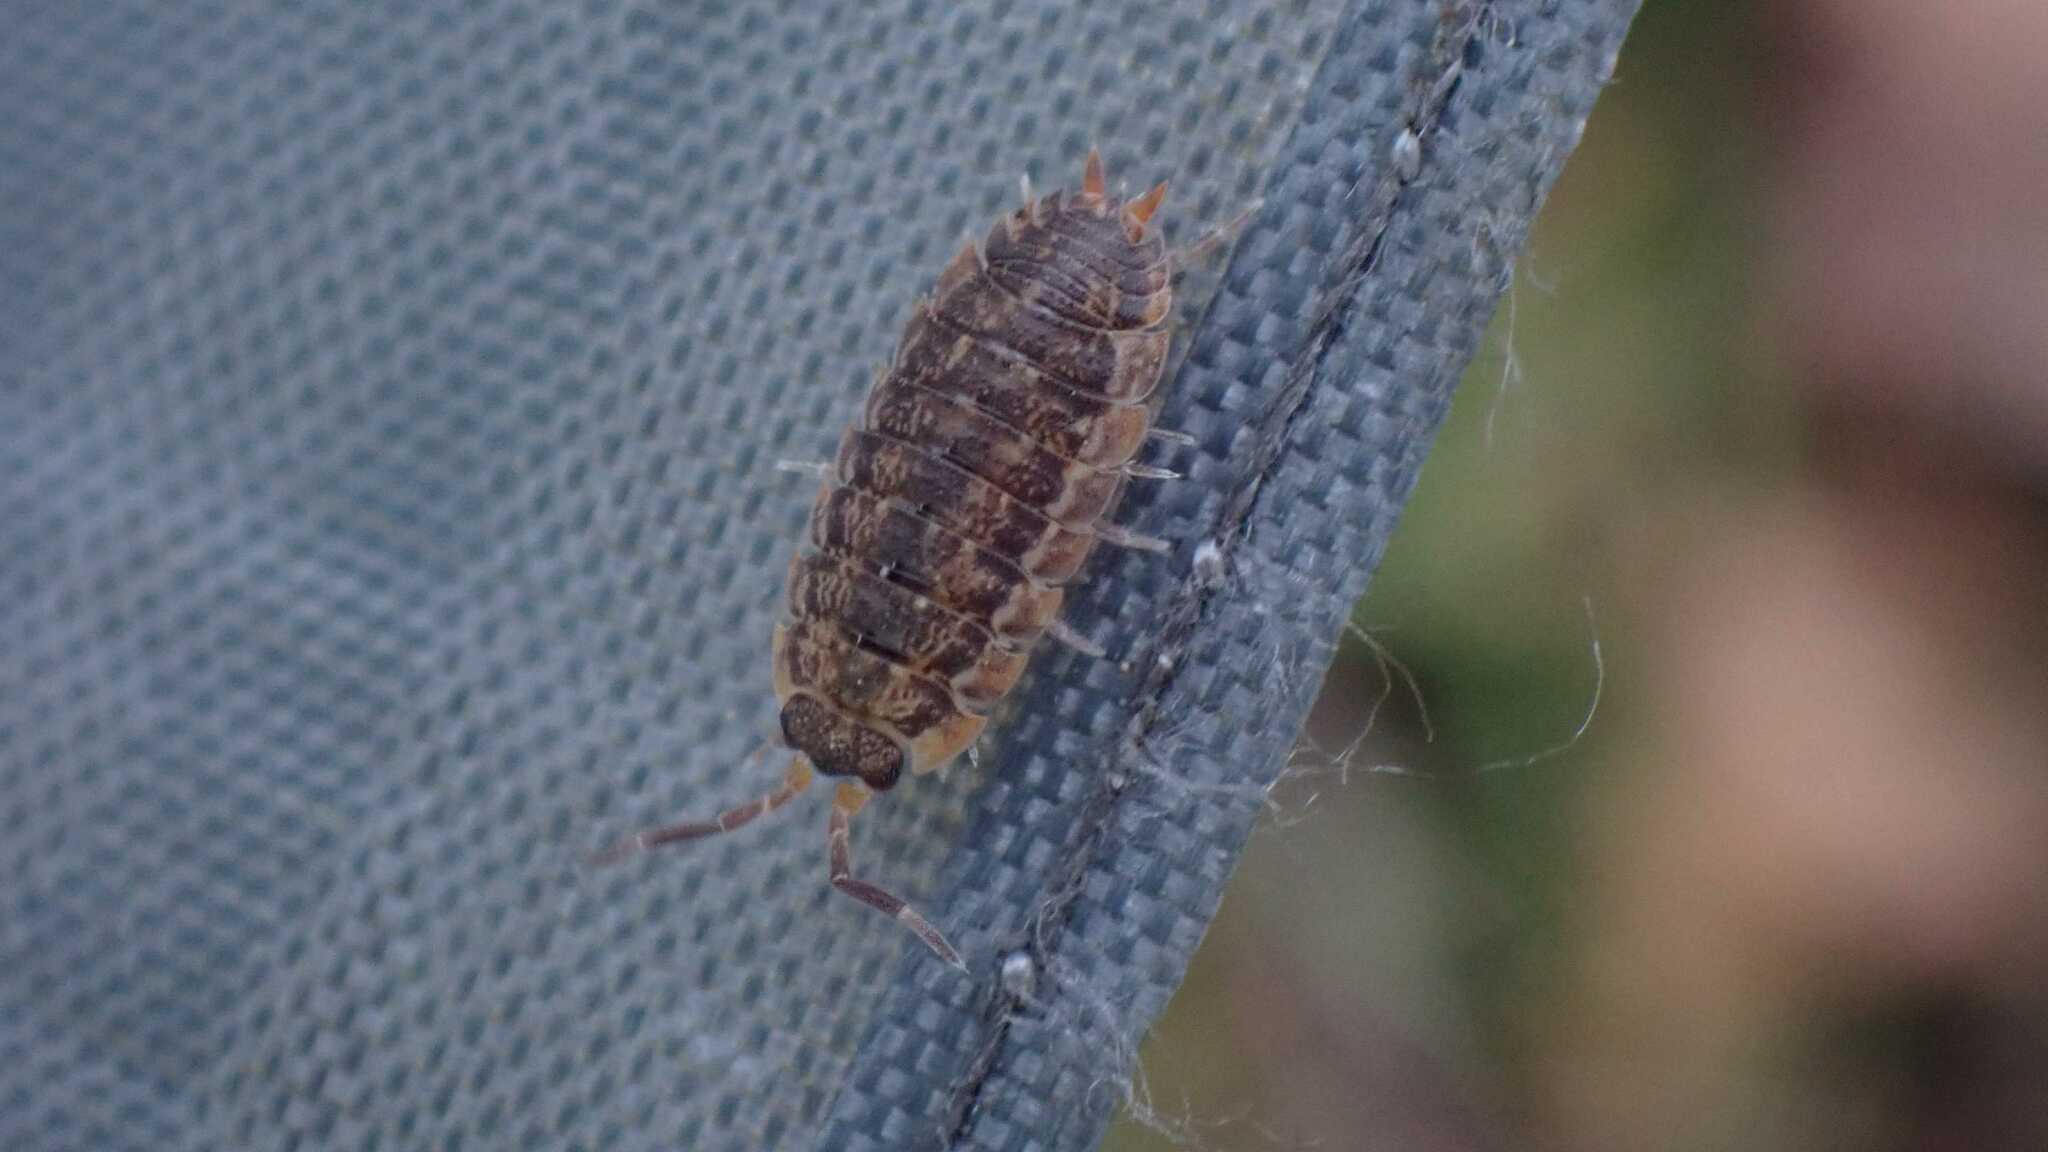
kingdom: Animalia
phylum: Arthropoda
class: Malacostraca
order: Isopoda
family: Porcellionidae
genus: Porcellio
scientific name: Porcellio scaber
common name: Common rough woodlouse
